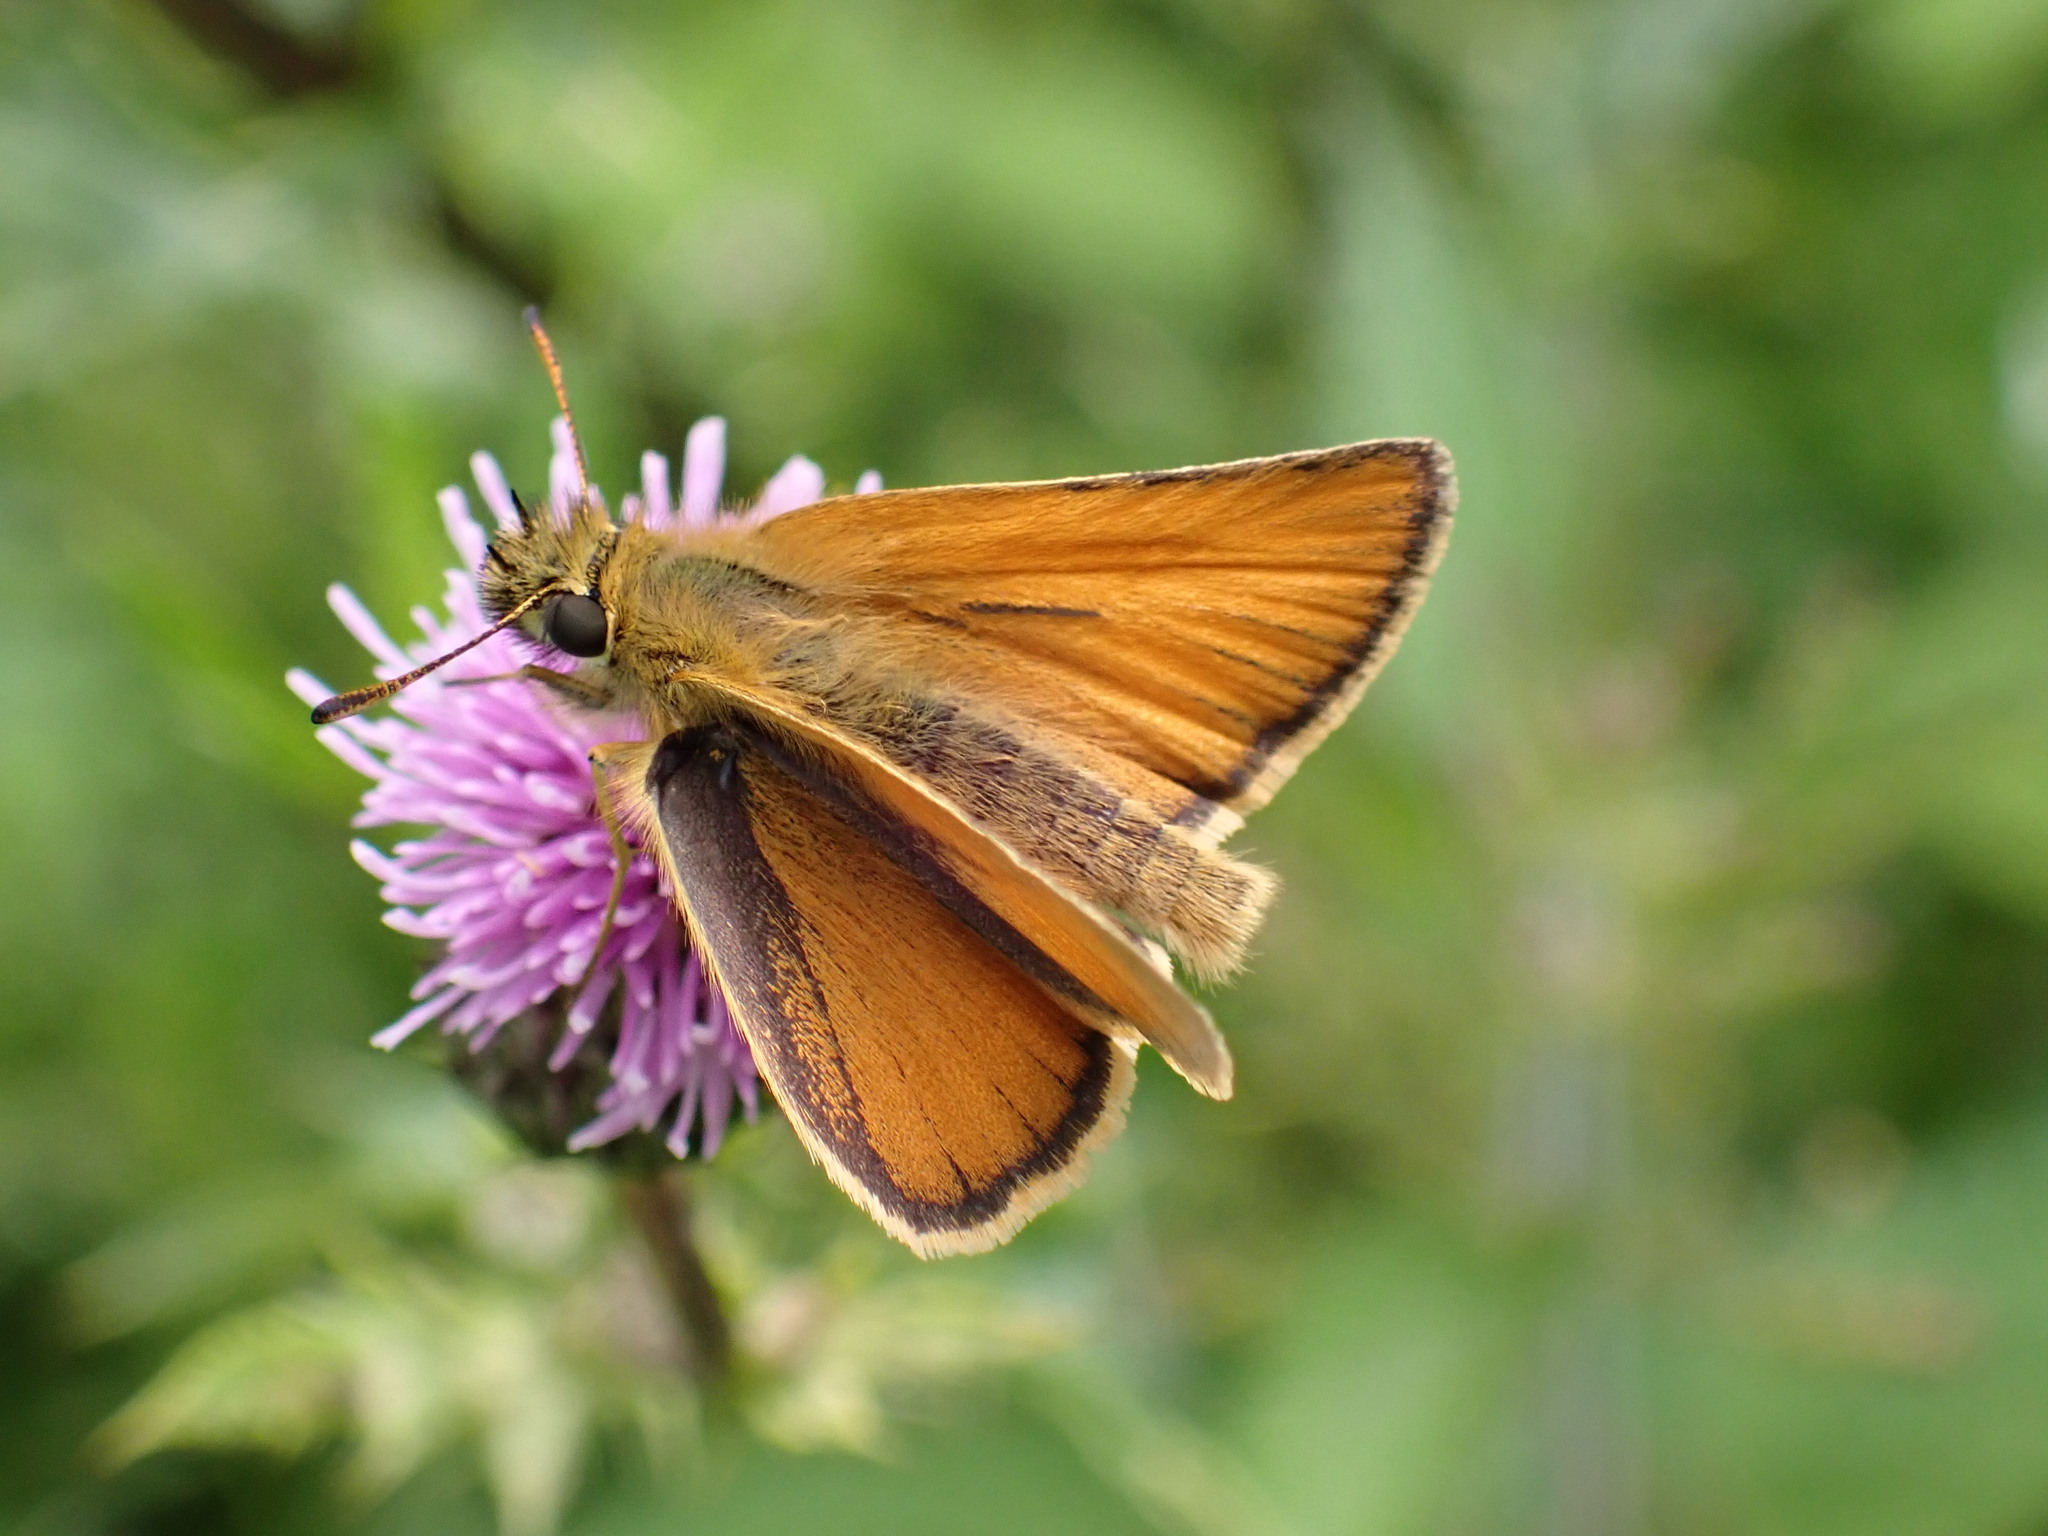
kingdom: Animalia
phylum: Arthropoda
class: Insecta
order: Lepidoptera
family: Hesperiidae
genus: Thymelicus
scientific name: Thymelicus lineola
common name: Essex skipper
